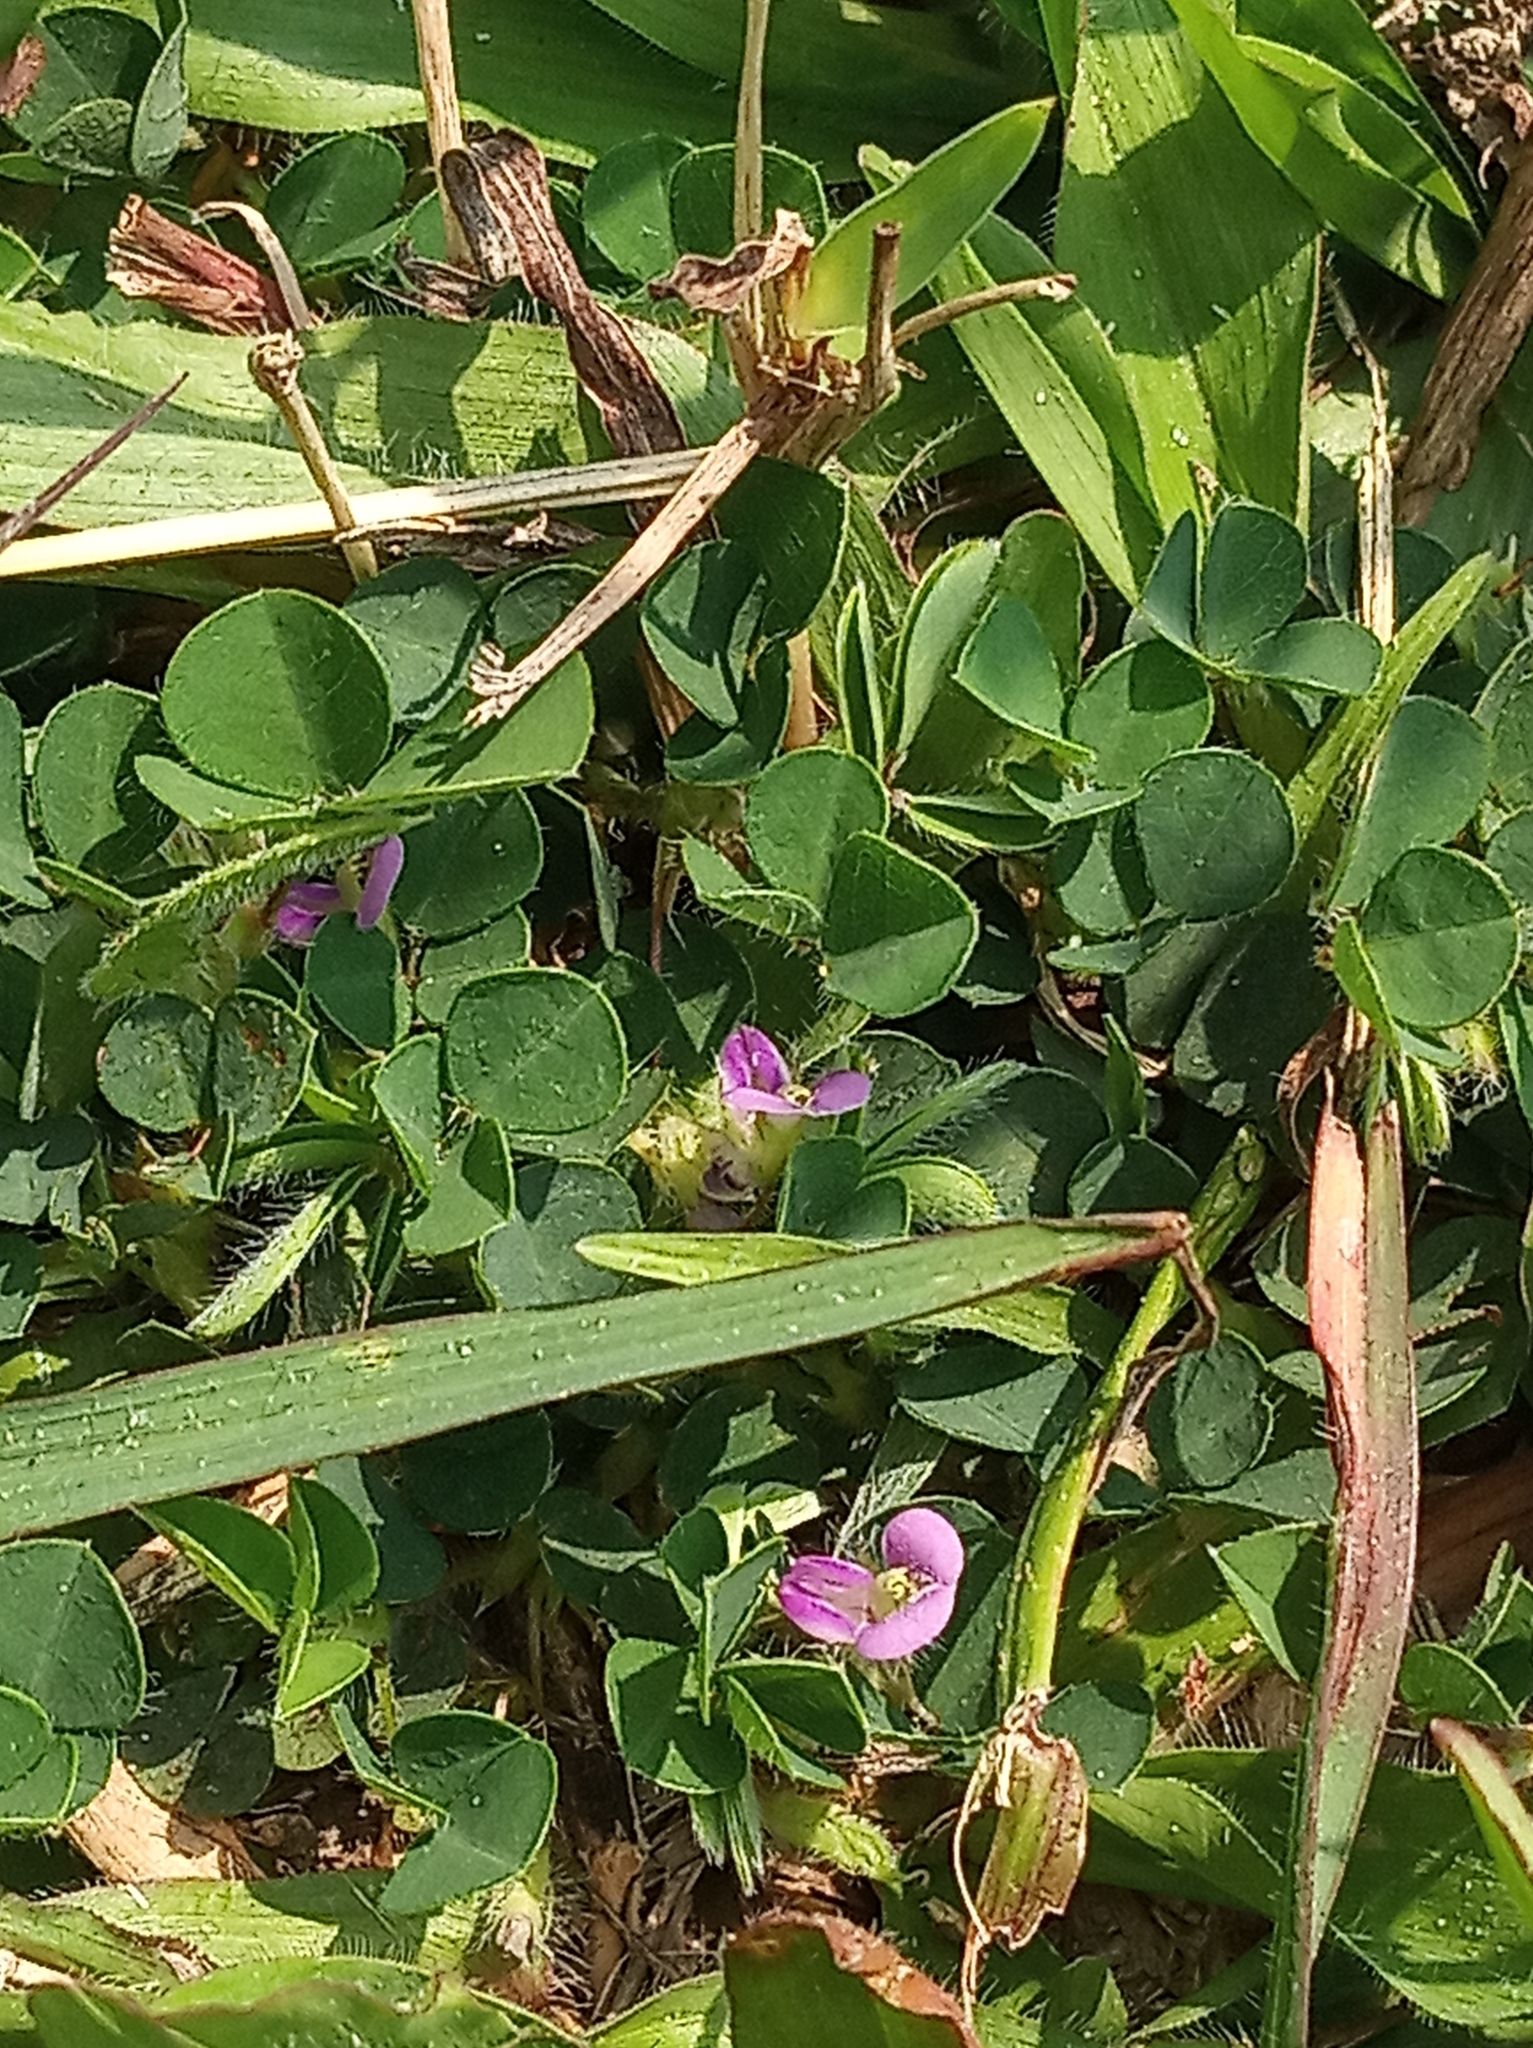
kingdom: Plantae
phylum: Tracheophyta
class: Magnoliopsida
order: Fabales
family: Fabaceae
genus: Grona
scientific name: Grona triflora
